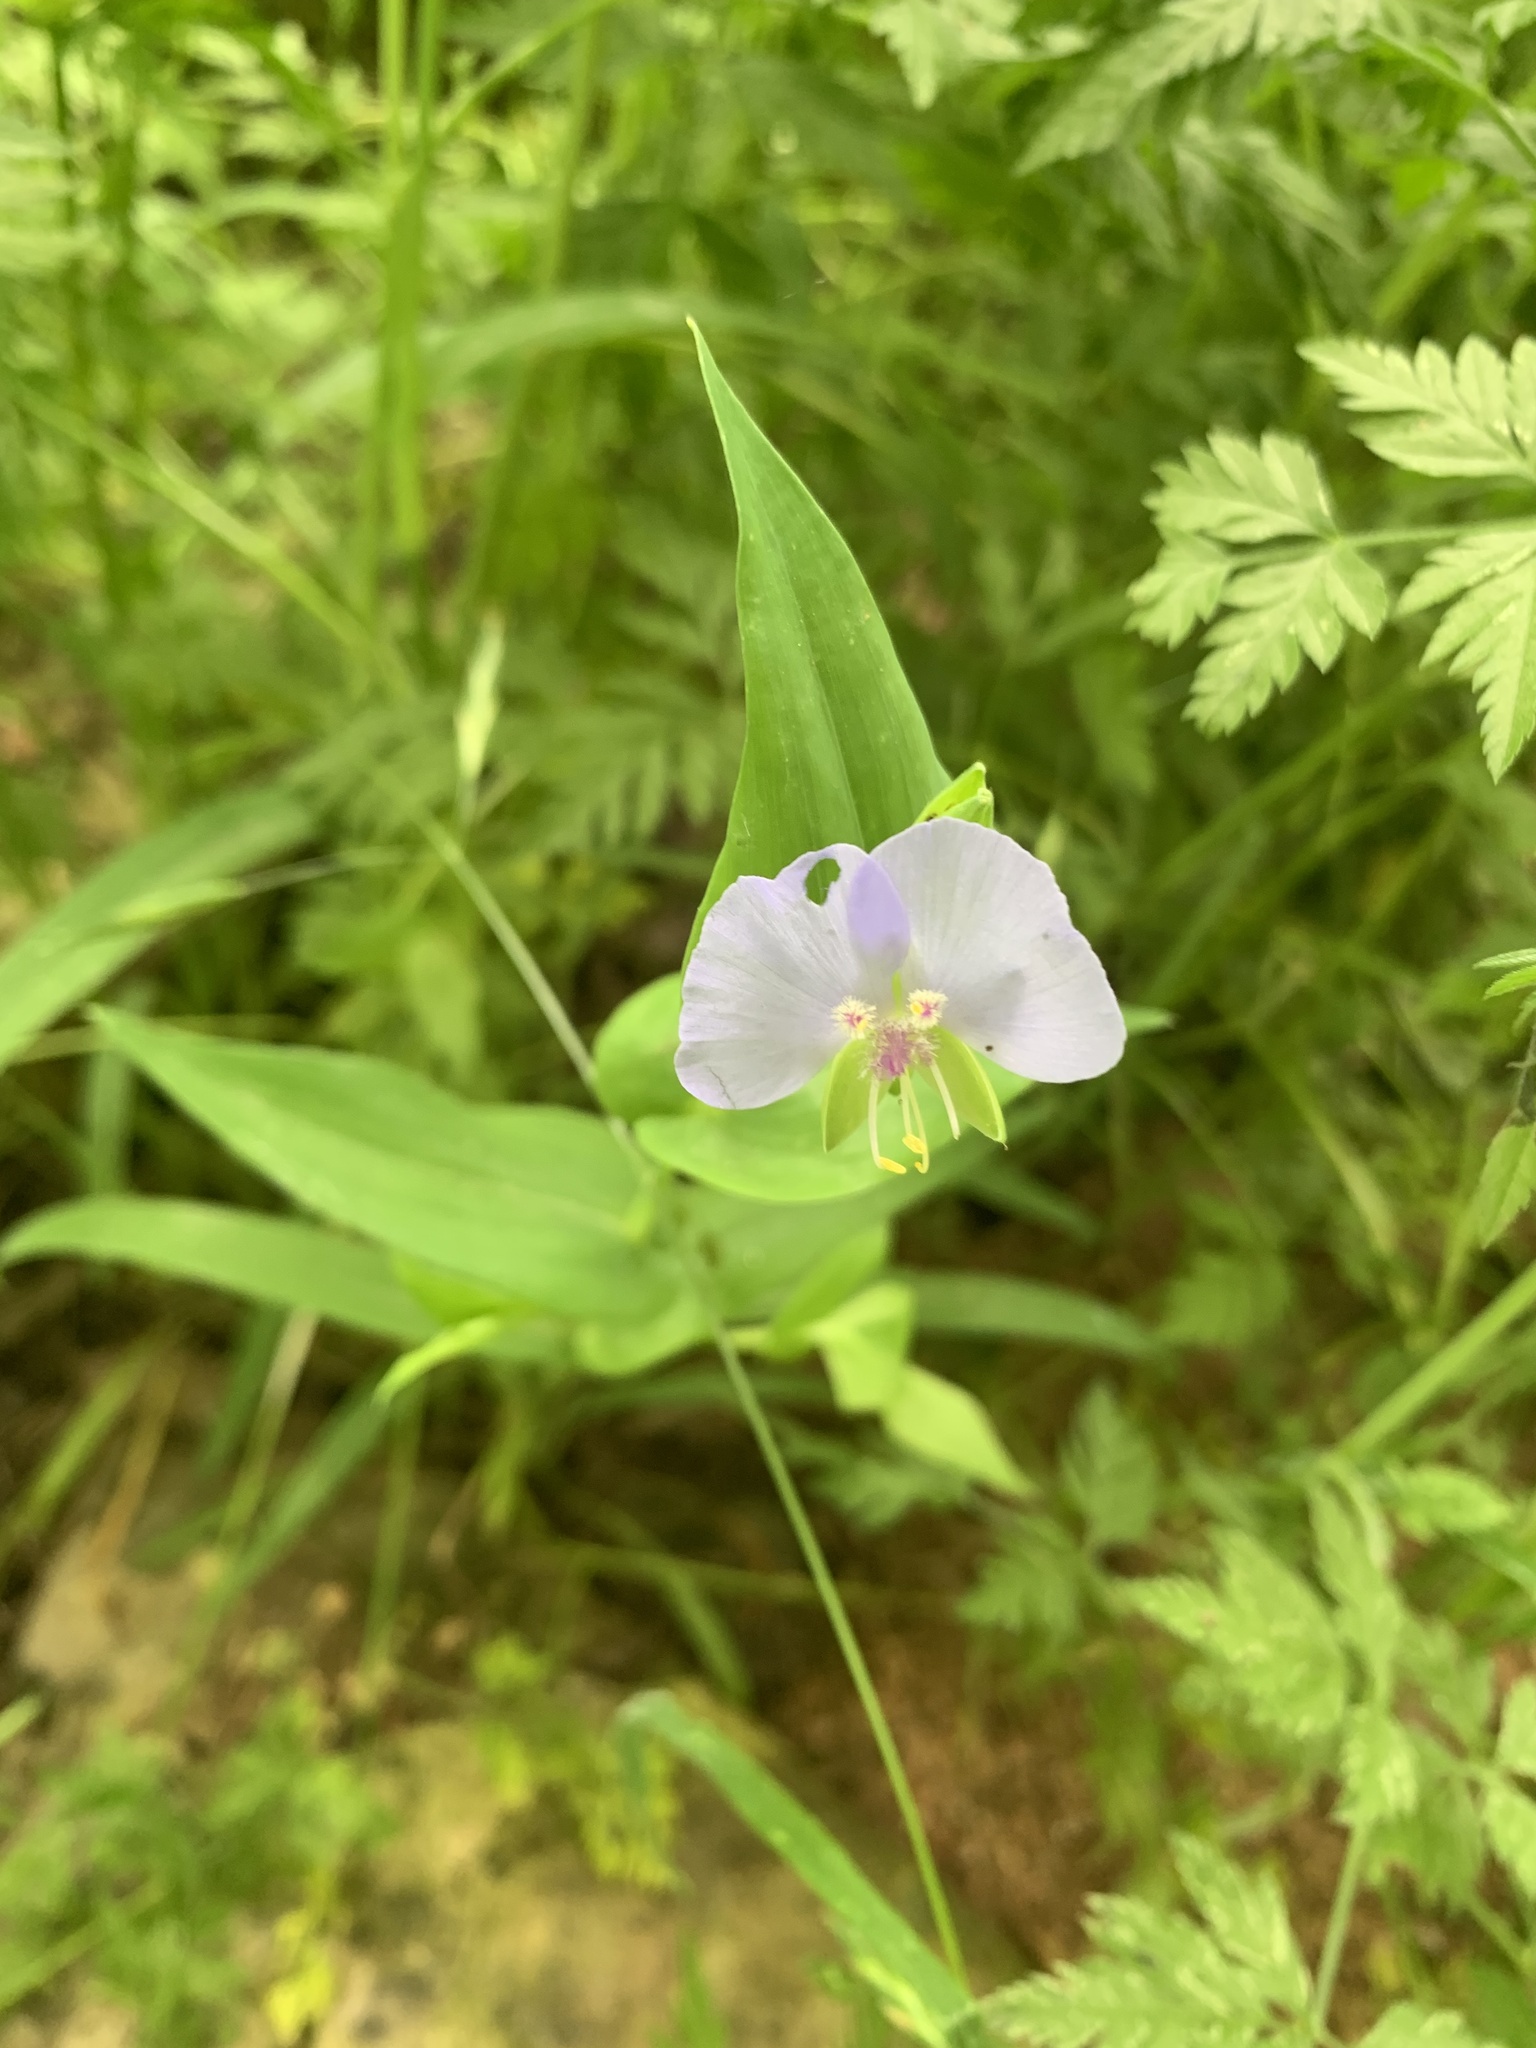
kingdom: Plantae
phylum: Tracheophyta
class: Liliopsida
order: Commelinales
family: Commelinaceae
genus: Tinantia
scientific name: Tinantia anomala
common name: False dayflower
